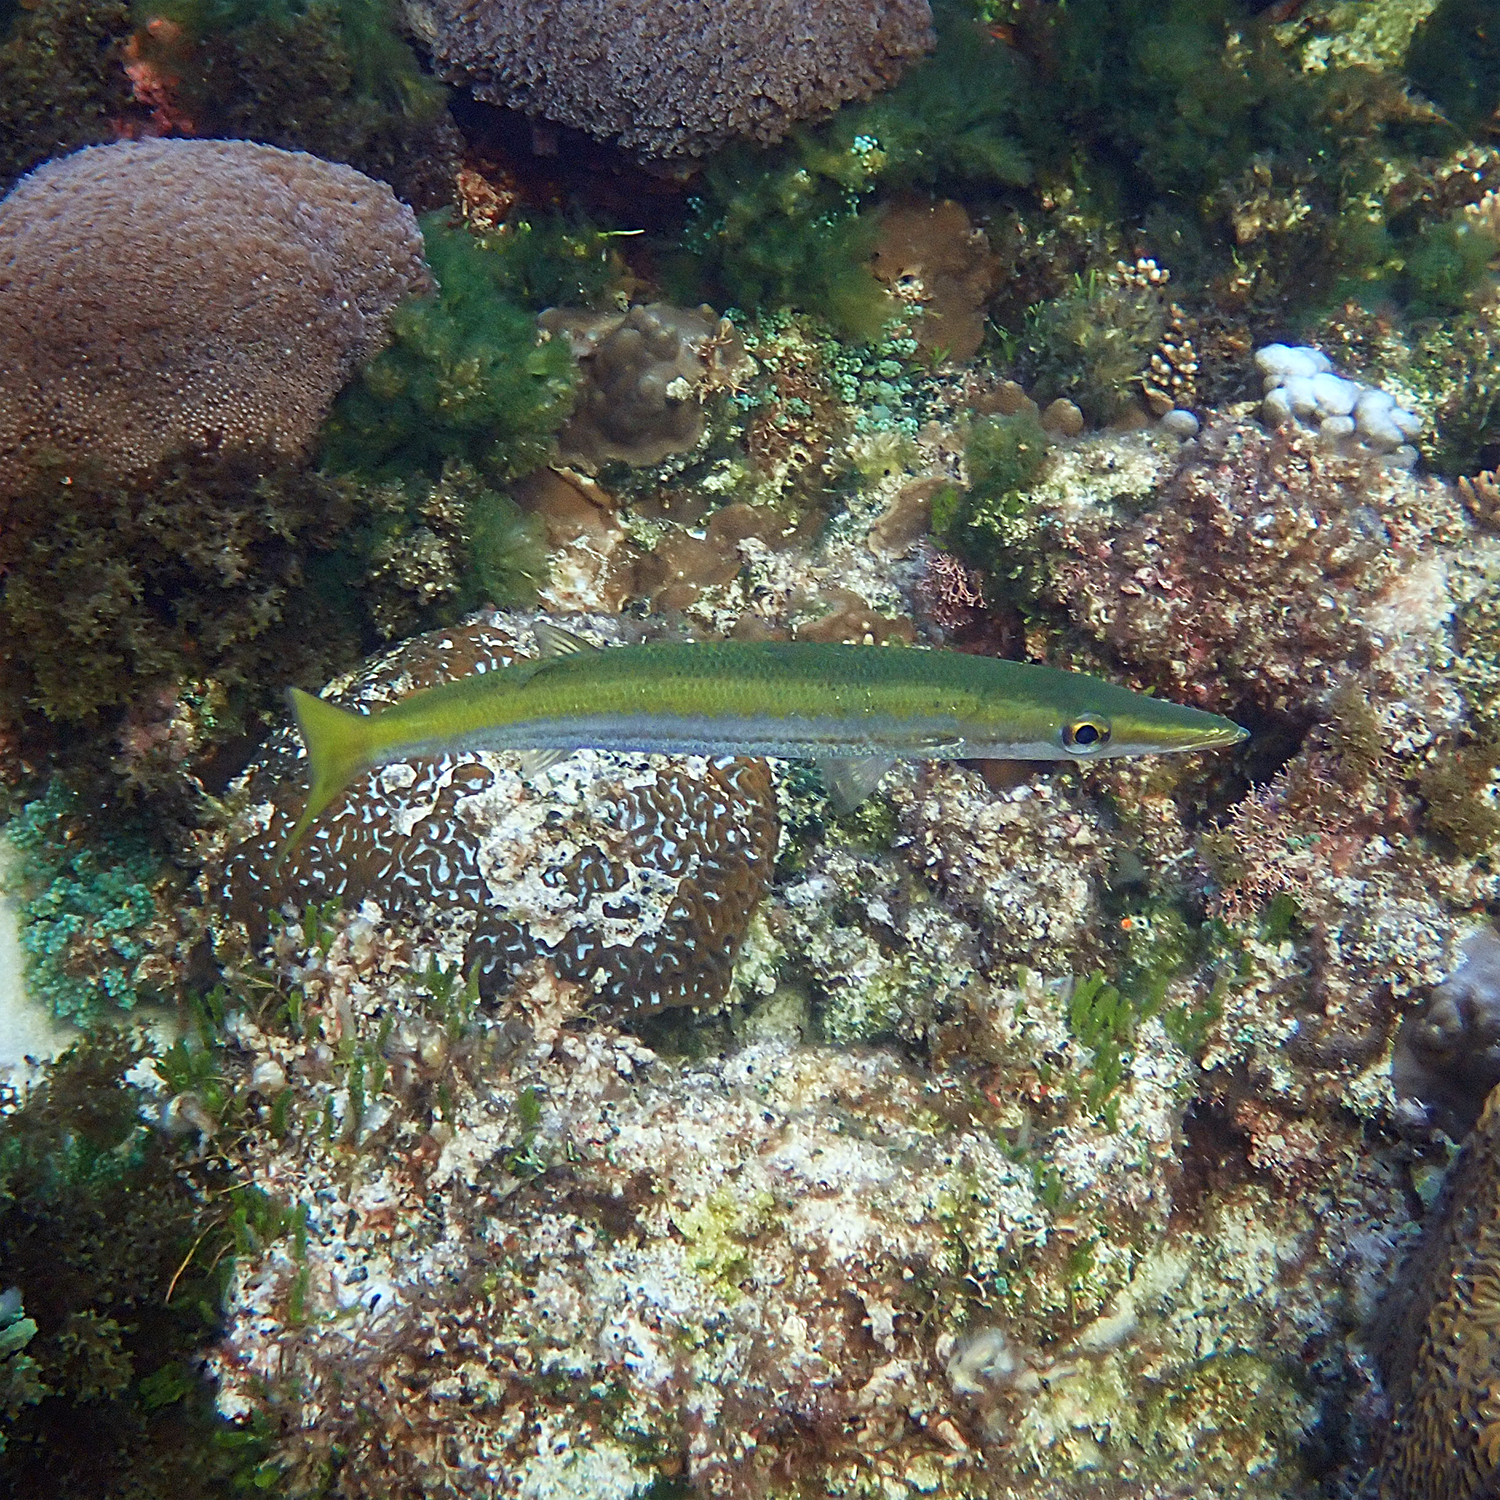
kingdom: Animalia
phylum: Chordata
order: Perciformes
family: Sphyraenidae
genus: Sphyraena
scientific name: Sphyraena flavicauda
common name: Yellowtail barracuda
